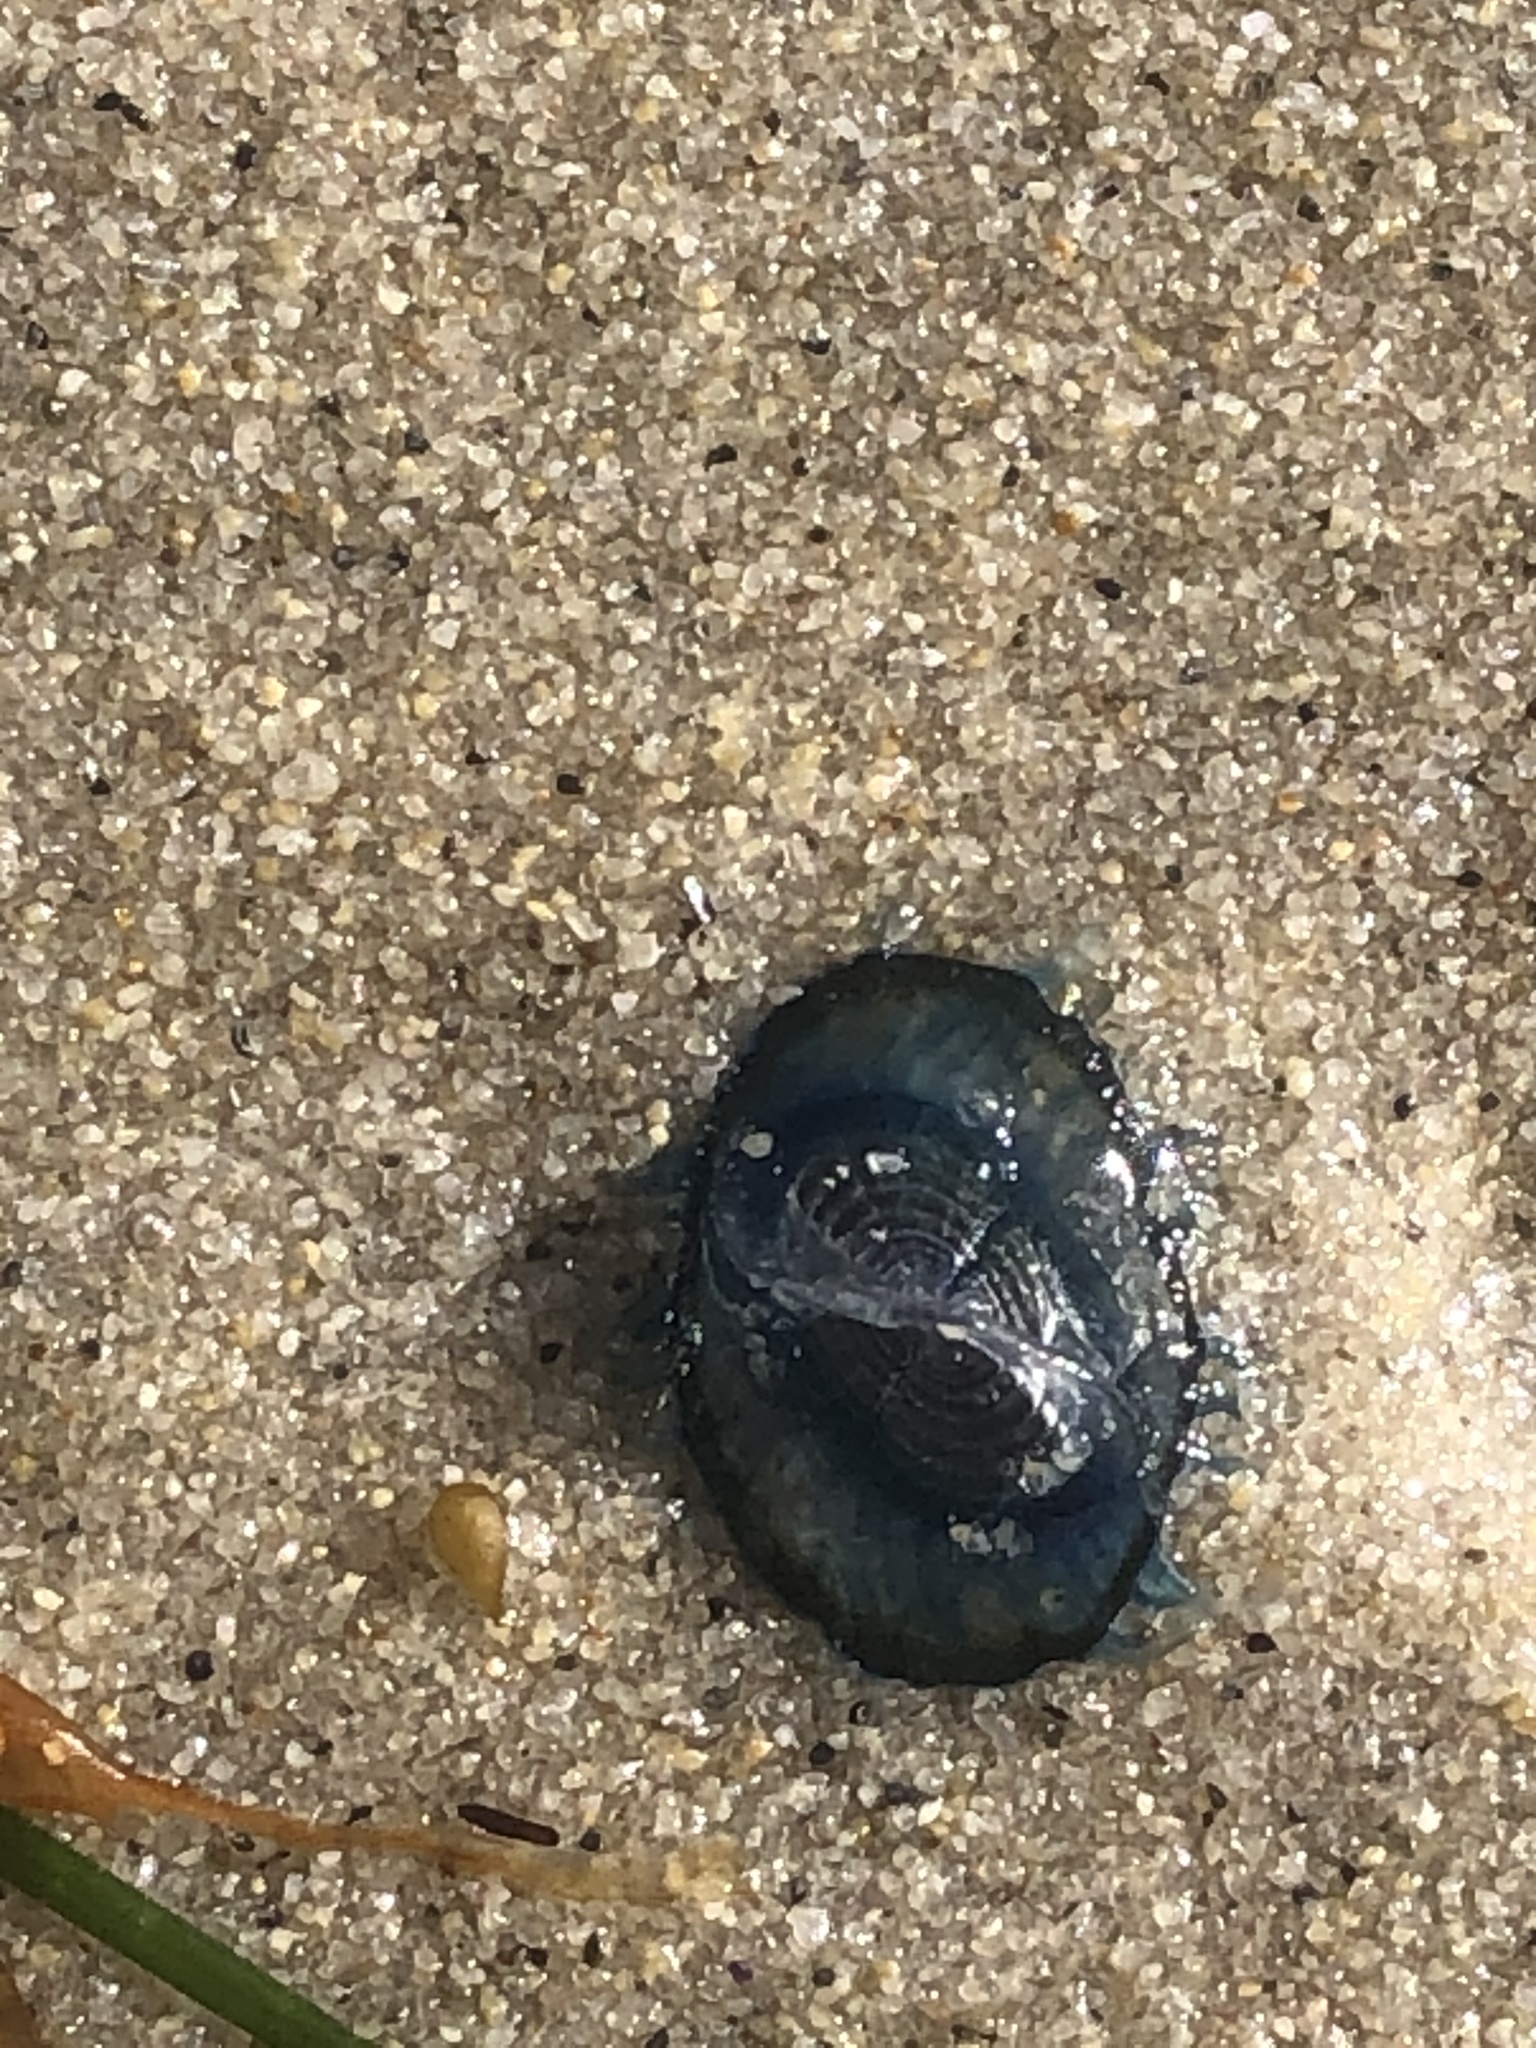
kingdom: Animalia
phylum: Cnidaria
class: Hydrozoa
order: Anthoathecata
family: Porpitidae
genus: Velella
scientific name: Velella velella
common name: By-the-wind-sailor
